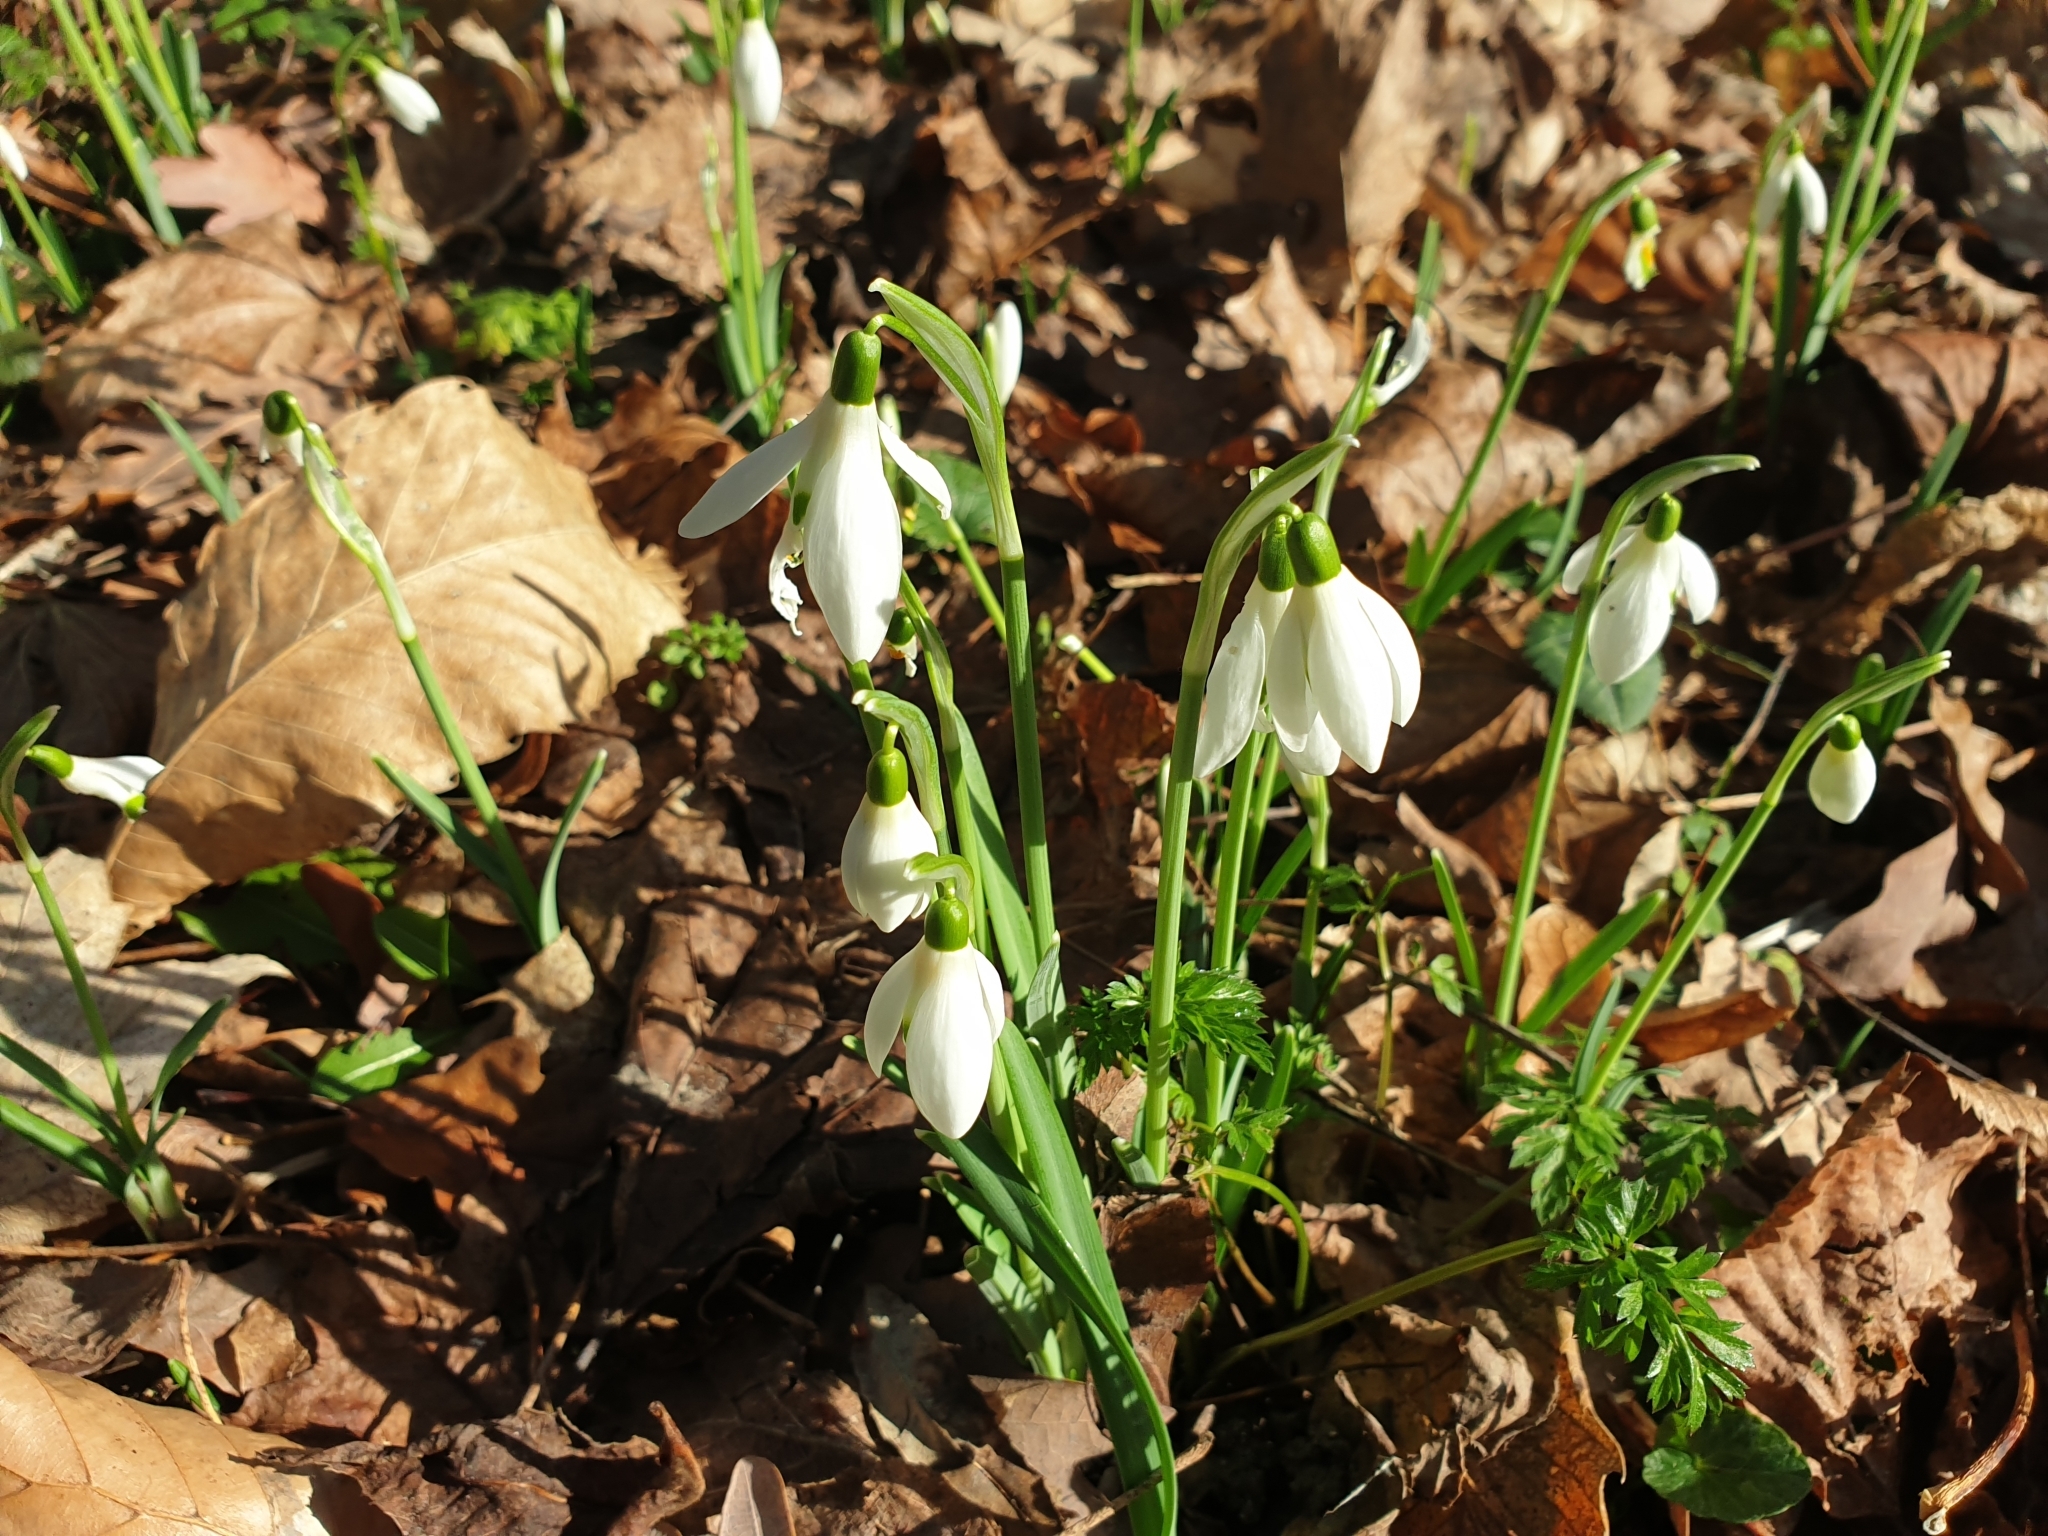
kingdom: Plantae
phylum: Tracheophyta
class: Liliopsida
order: Asparagales
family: Amaryllidaceae
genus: Galanthus
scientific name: Galanthus nivalis
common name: Snowdrop
